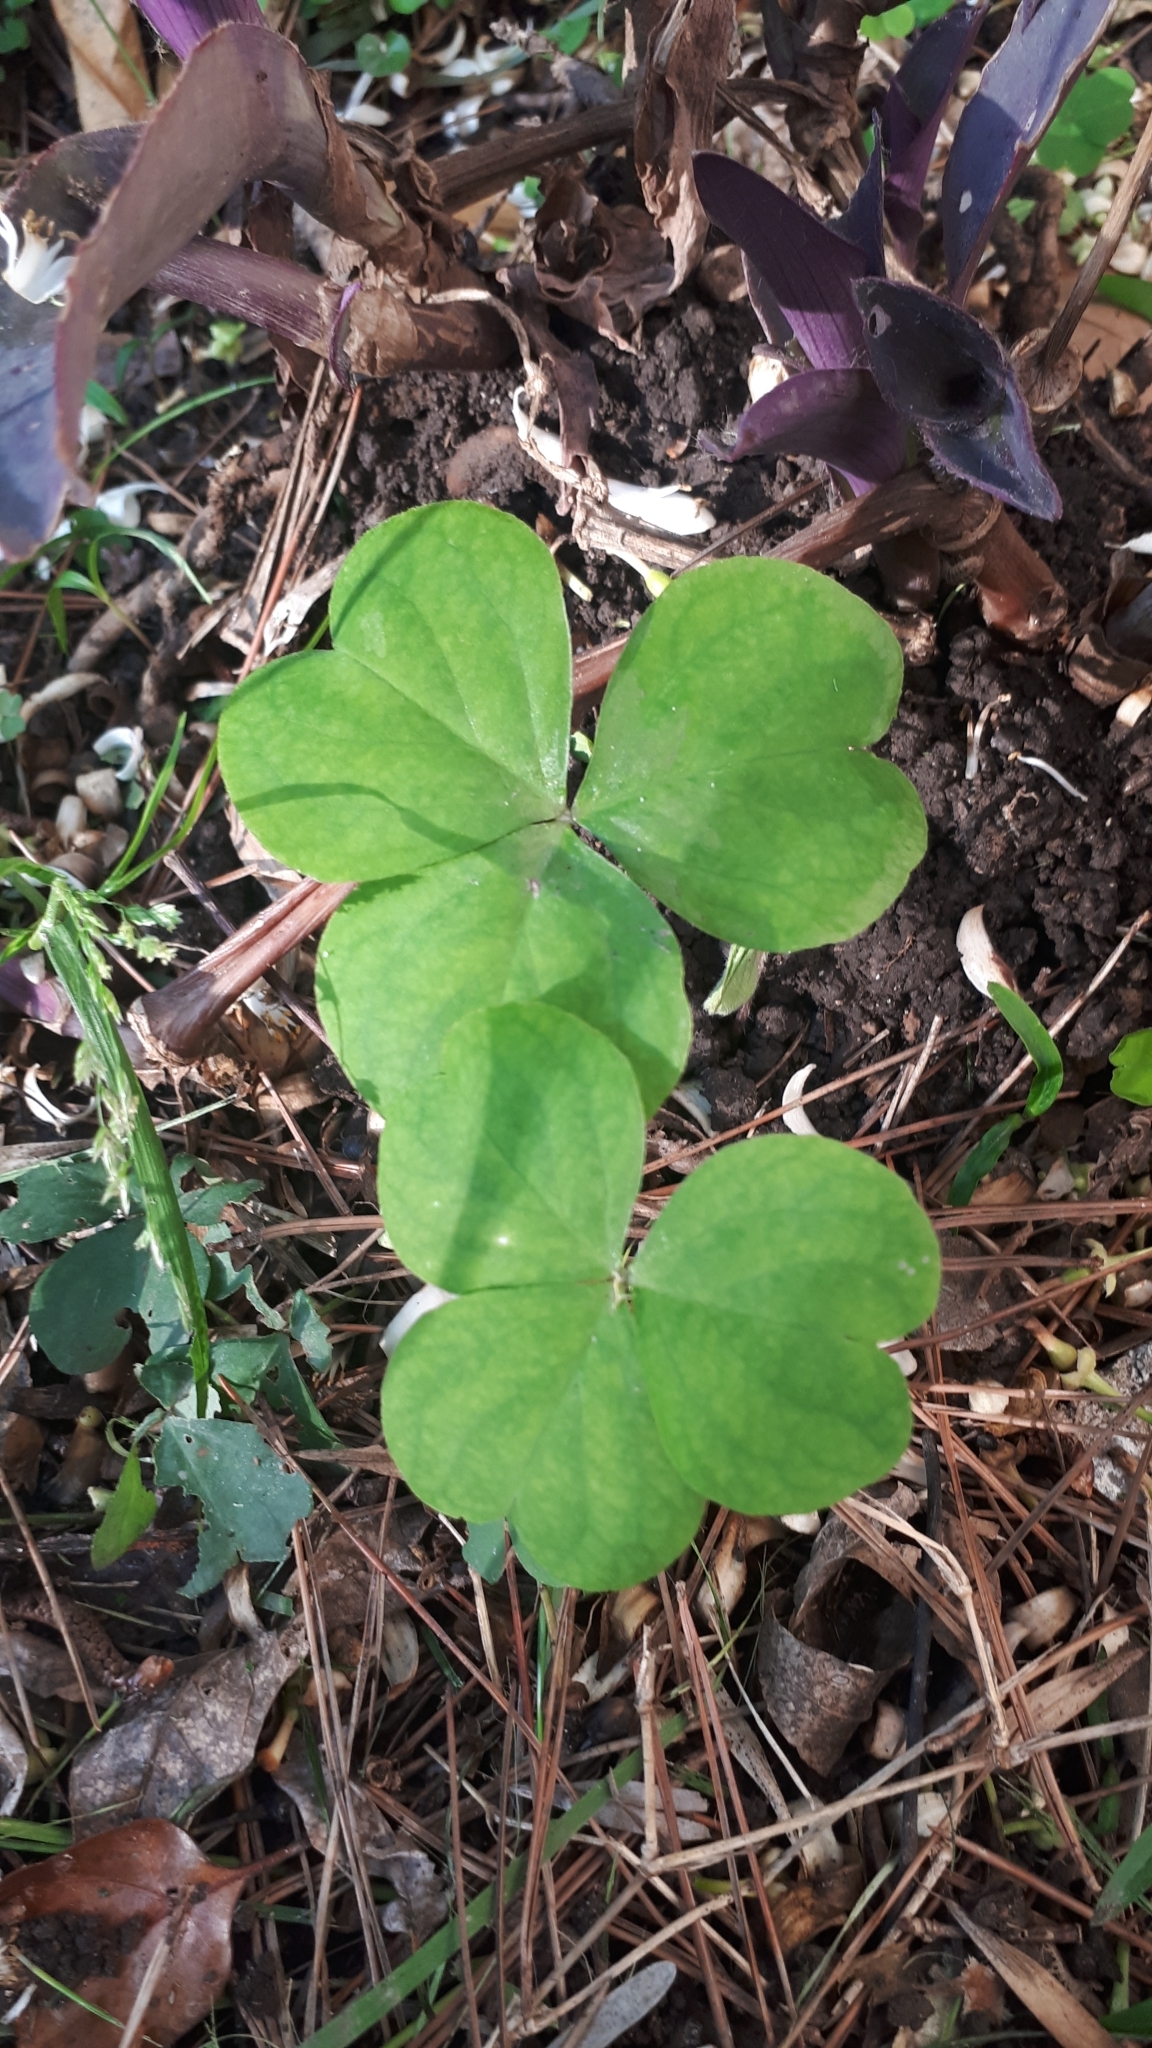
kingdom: Plantae
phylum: Tracheophyta
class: Magnoliopsida
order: Oxalidales
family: Oxalidaceae
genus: Oxalis
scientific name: Oxalis debilis
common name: Large-flowered pink-sorrel
